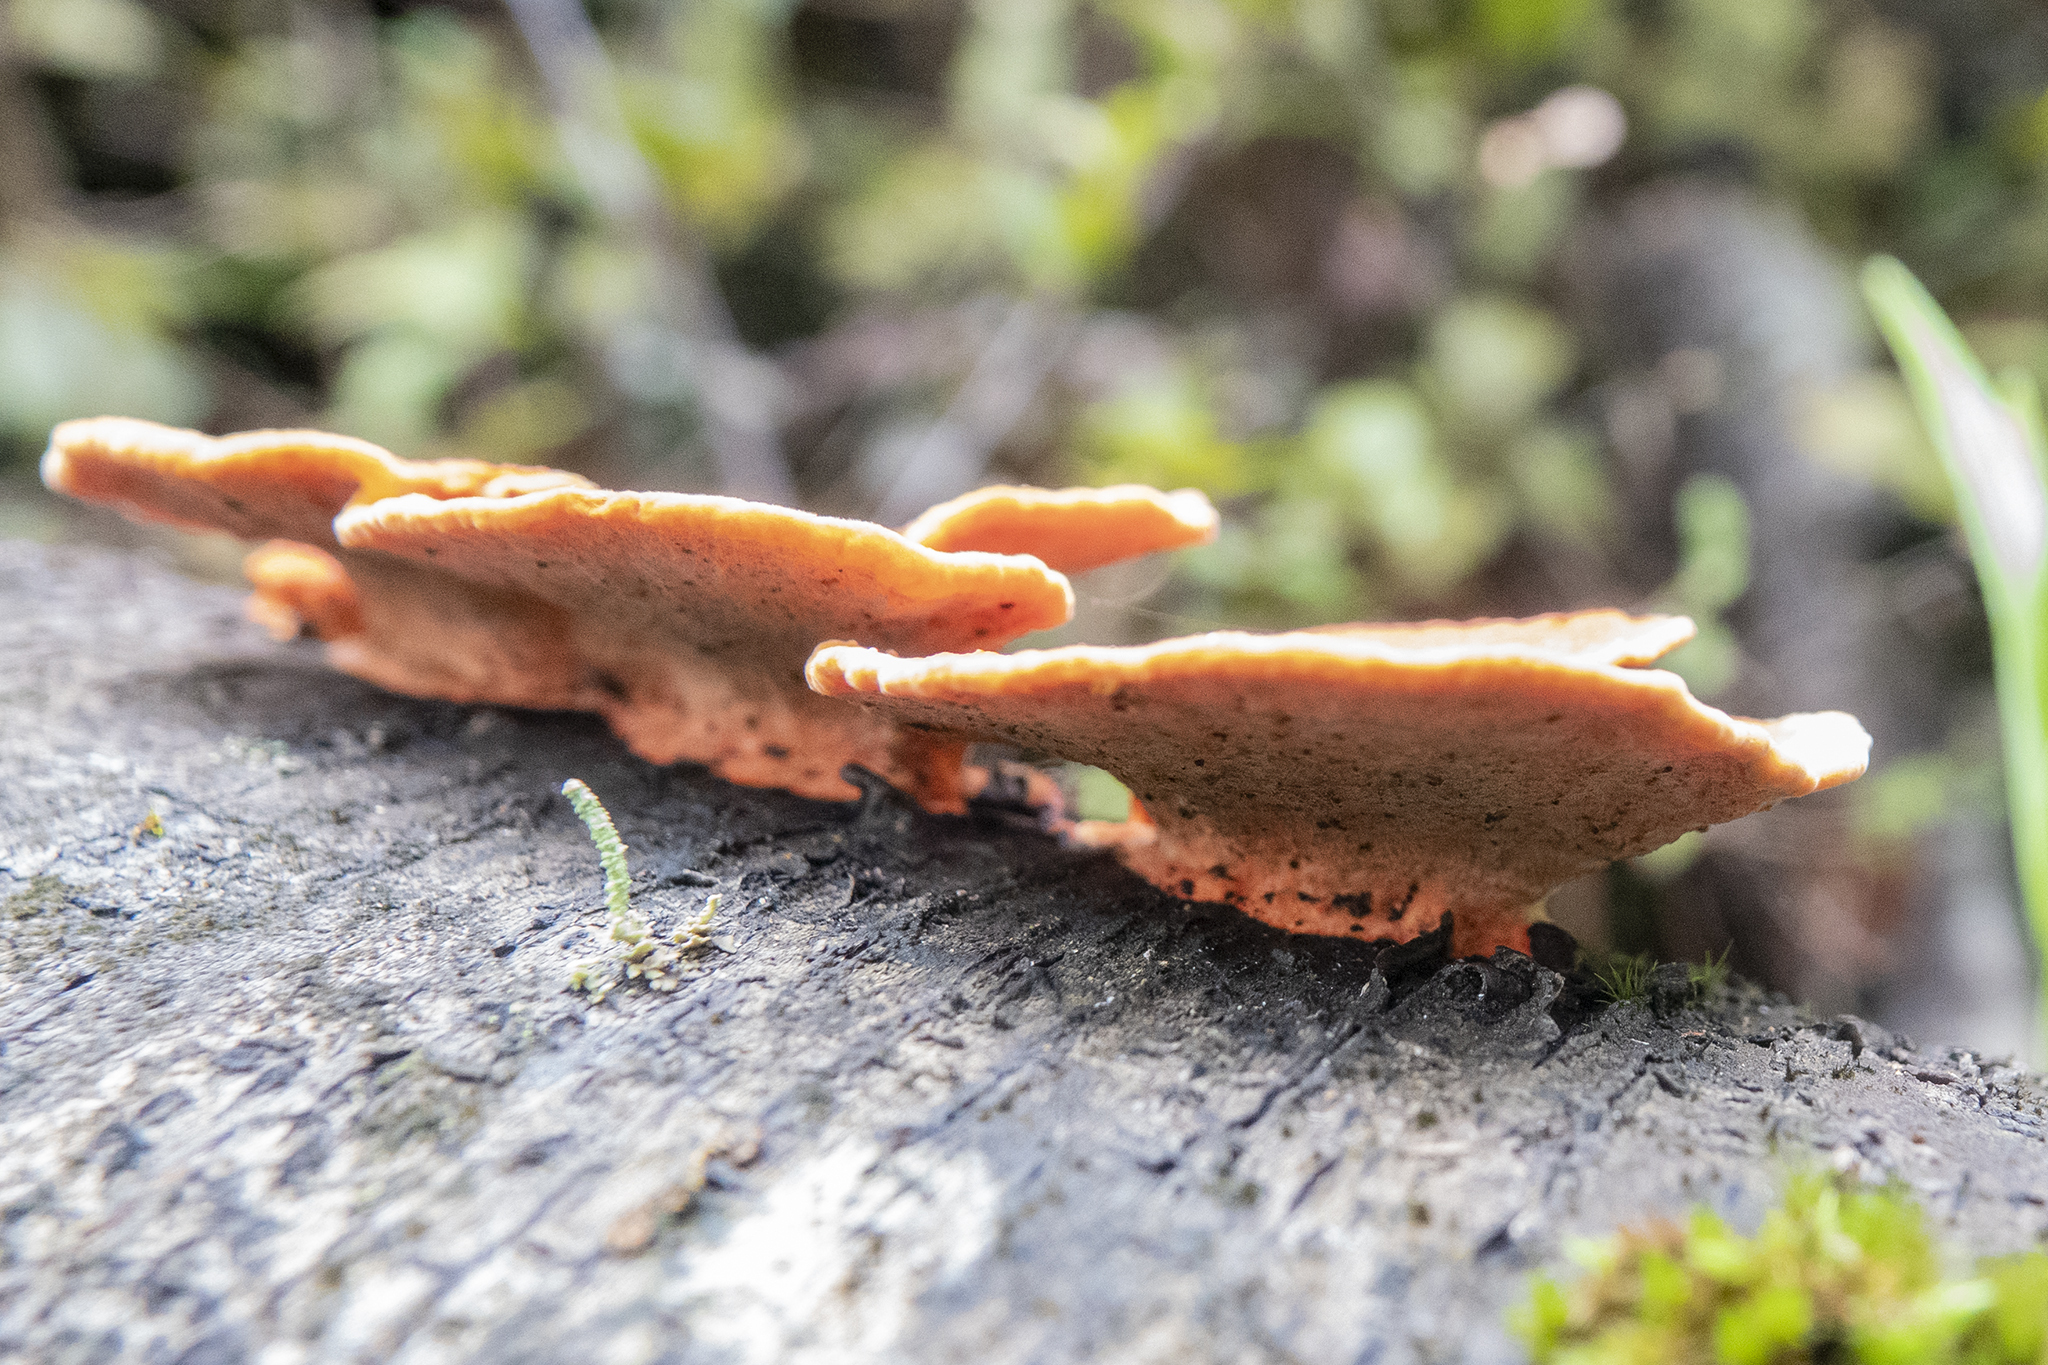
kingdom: Fungi
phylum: Basidiomycota
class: Agaricomycetes
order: Polyporales
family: Polyporaceae
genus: Trametes
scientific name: Trametes coccinea
